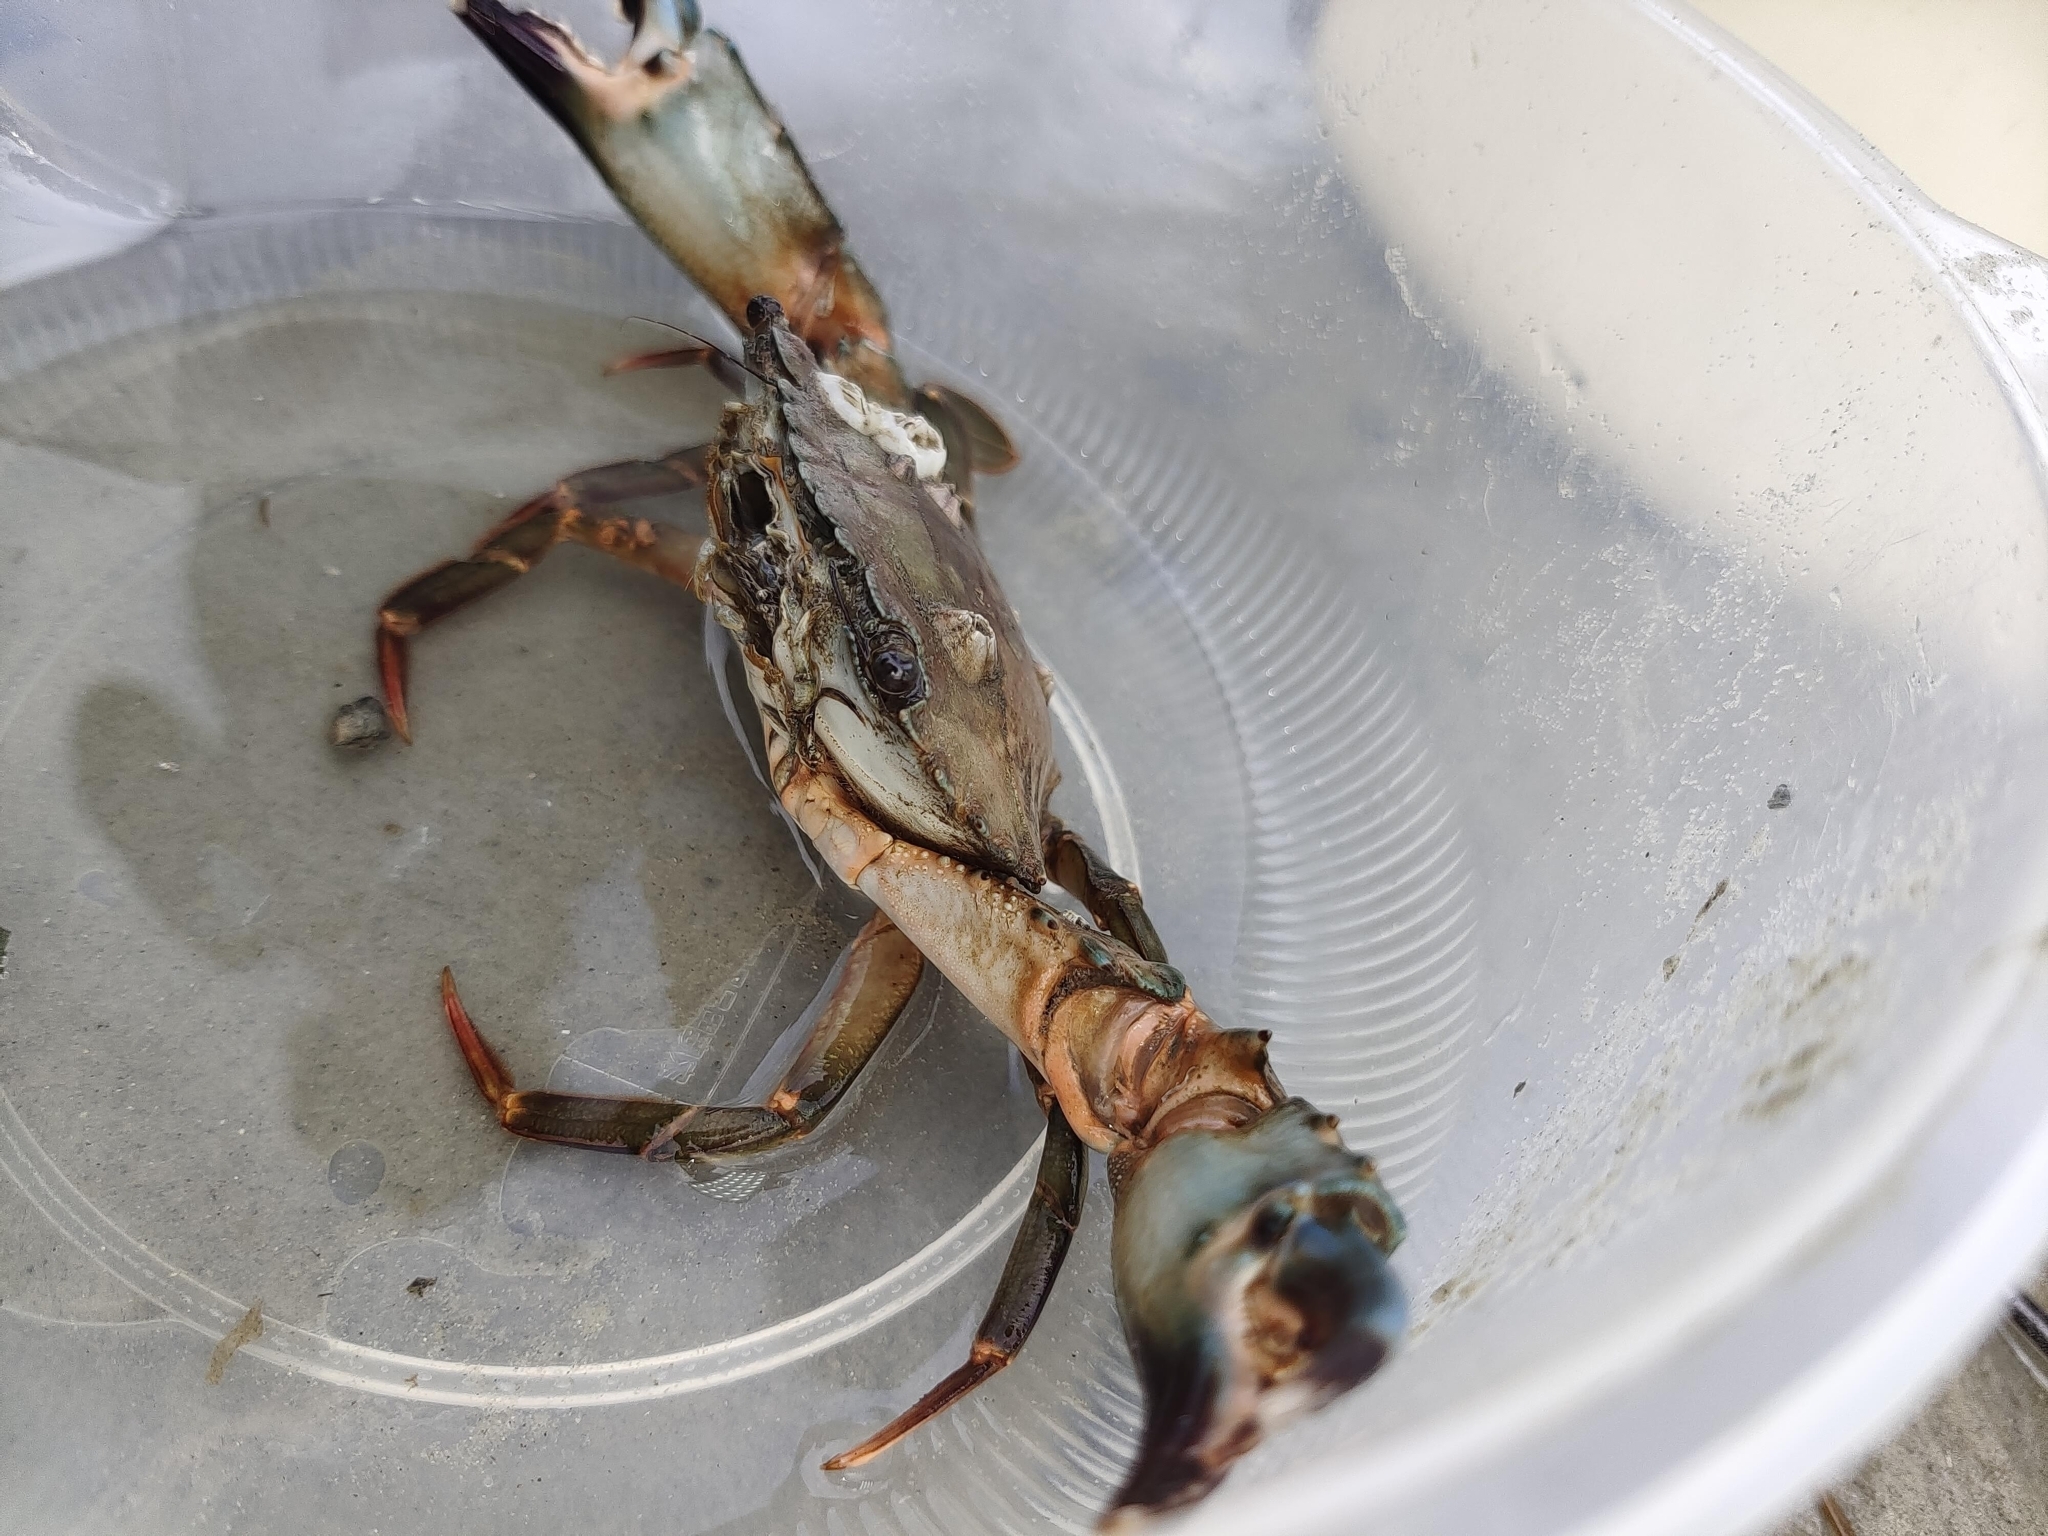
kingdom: Animalia
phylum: Arthropoda
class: Malacostraca
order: Decapoda
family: Portunidae
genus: Thalamita
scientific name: Thalamita crenata
